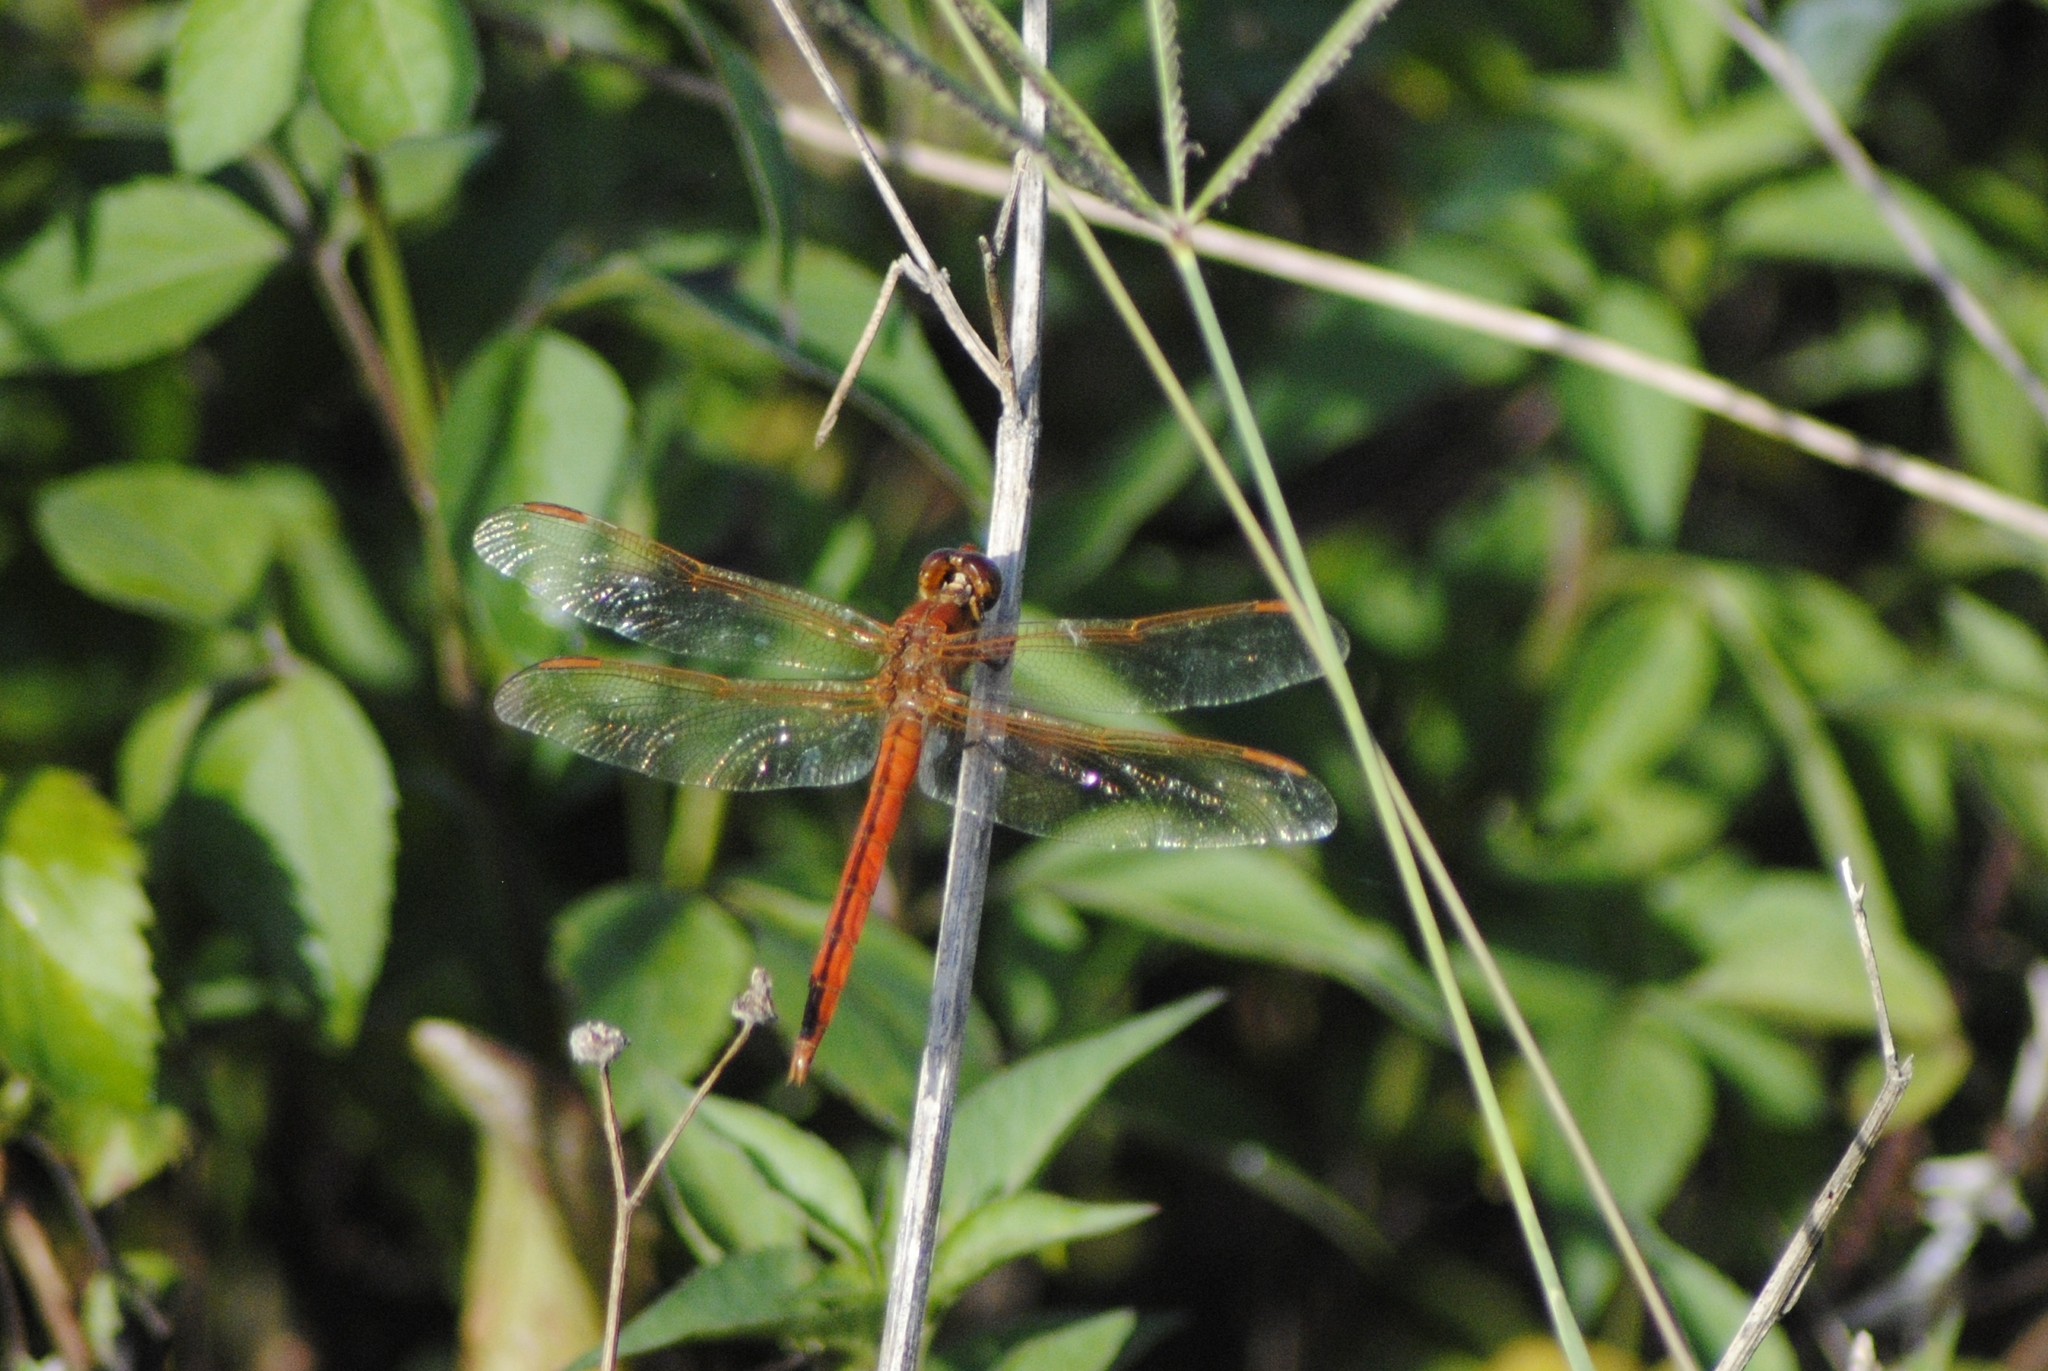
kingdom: Animalia
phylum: Arthropoda
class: Insecta
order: Odonata
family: Libellulidae
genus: Libellula
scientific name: Libellula needhami
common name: Needham's skimmer
